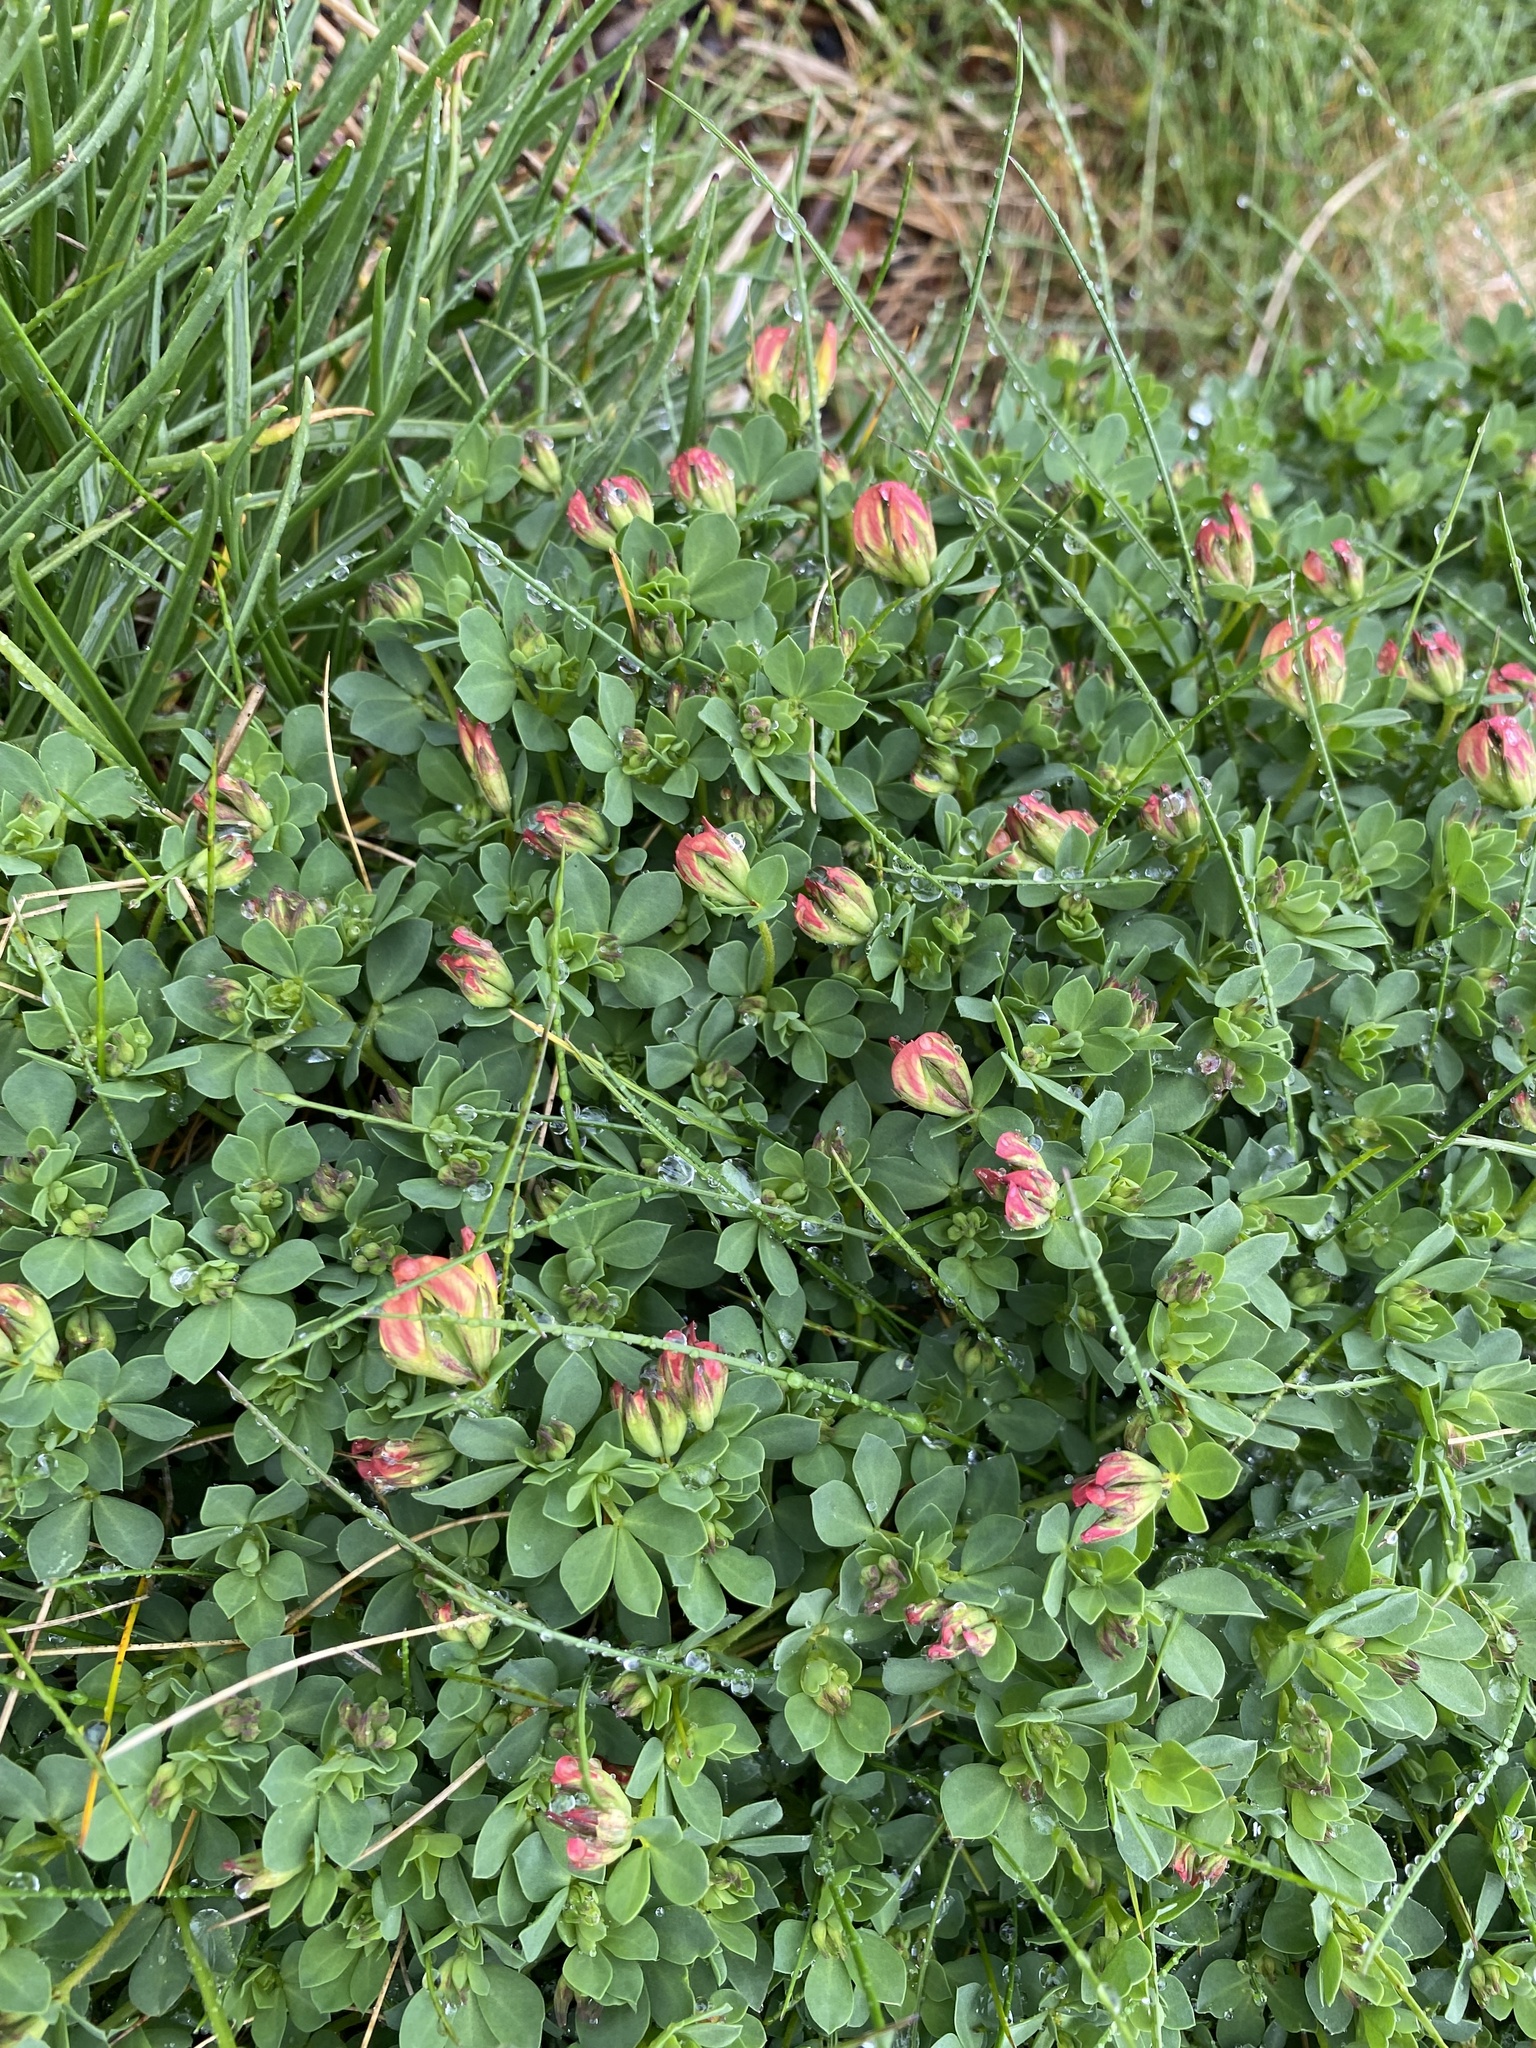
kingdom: Plantae
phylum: Tracheophyta
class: Magnoliopsida
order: Fabales
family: Fabaceae
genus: Lotus
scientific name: Lotus corniculatus
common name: Common bird's-foot-trefoil
